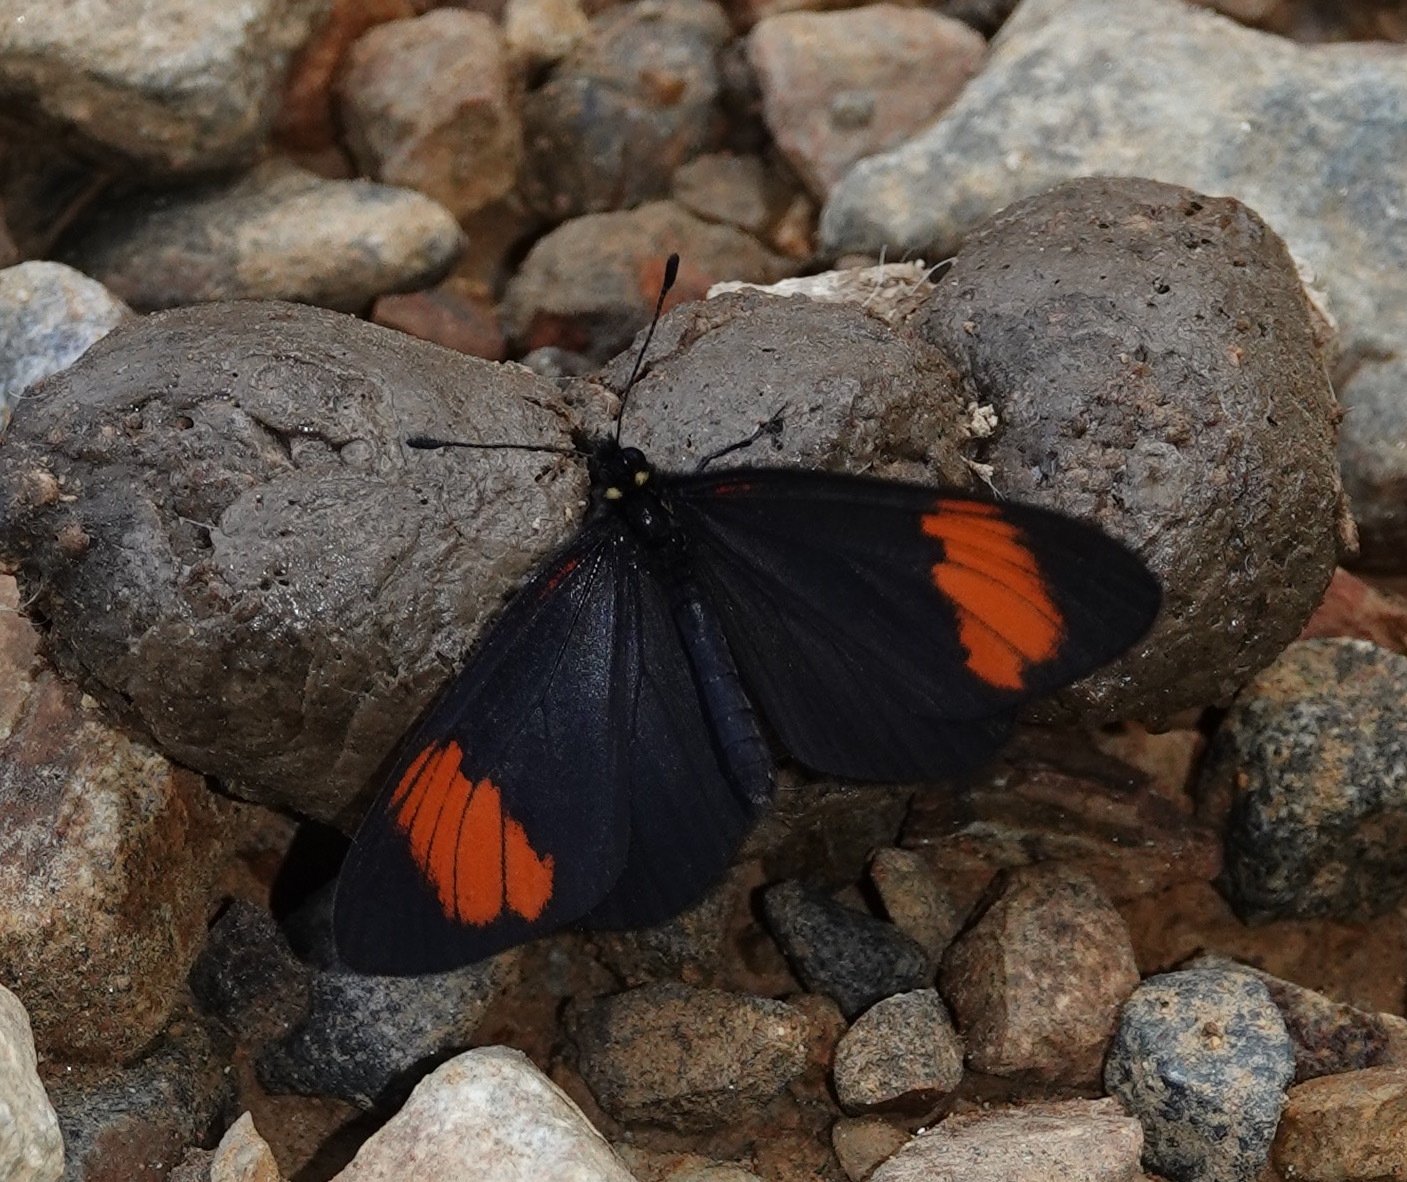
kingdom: Animalia
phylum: Arthropoda
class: Insecta
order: Lepidoptera
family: Nymphalidae
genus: Actinote
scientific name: Actinote
